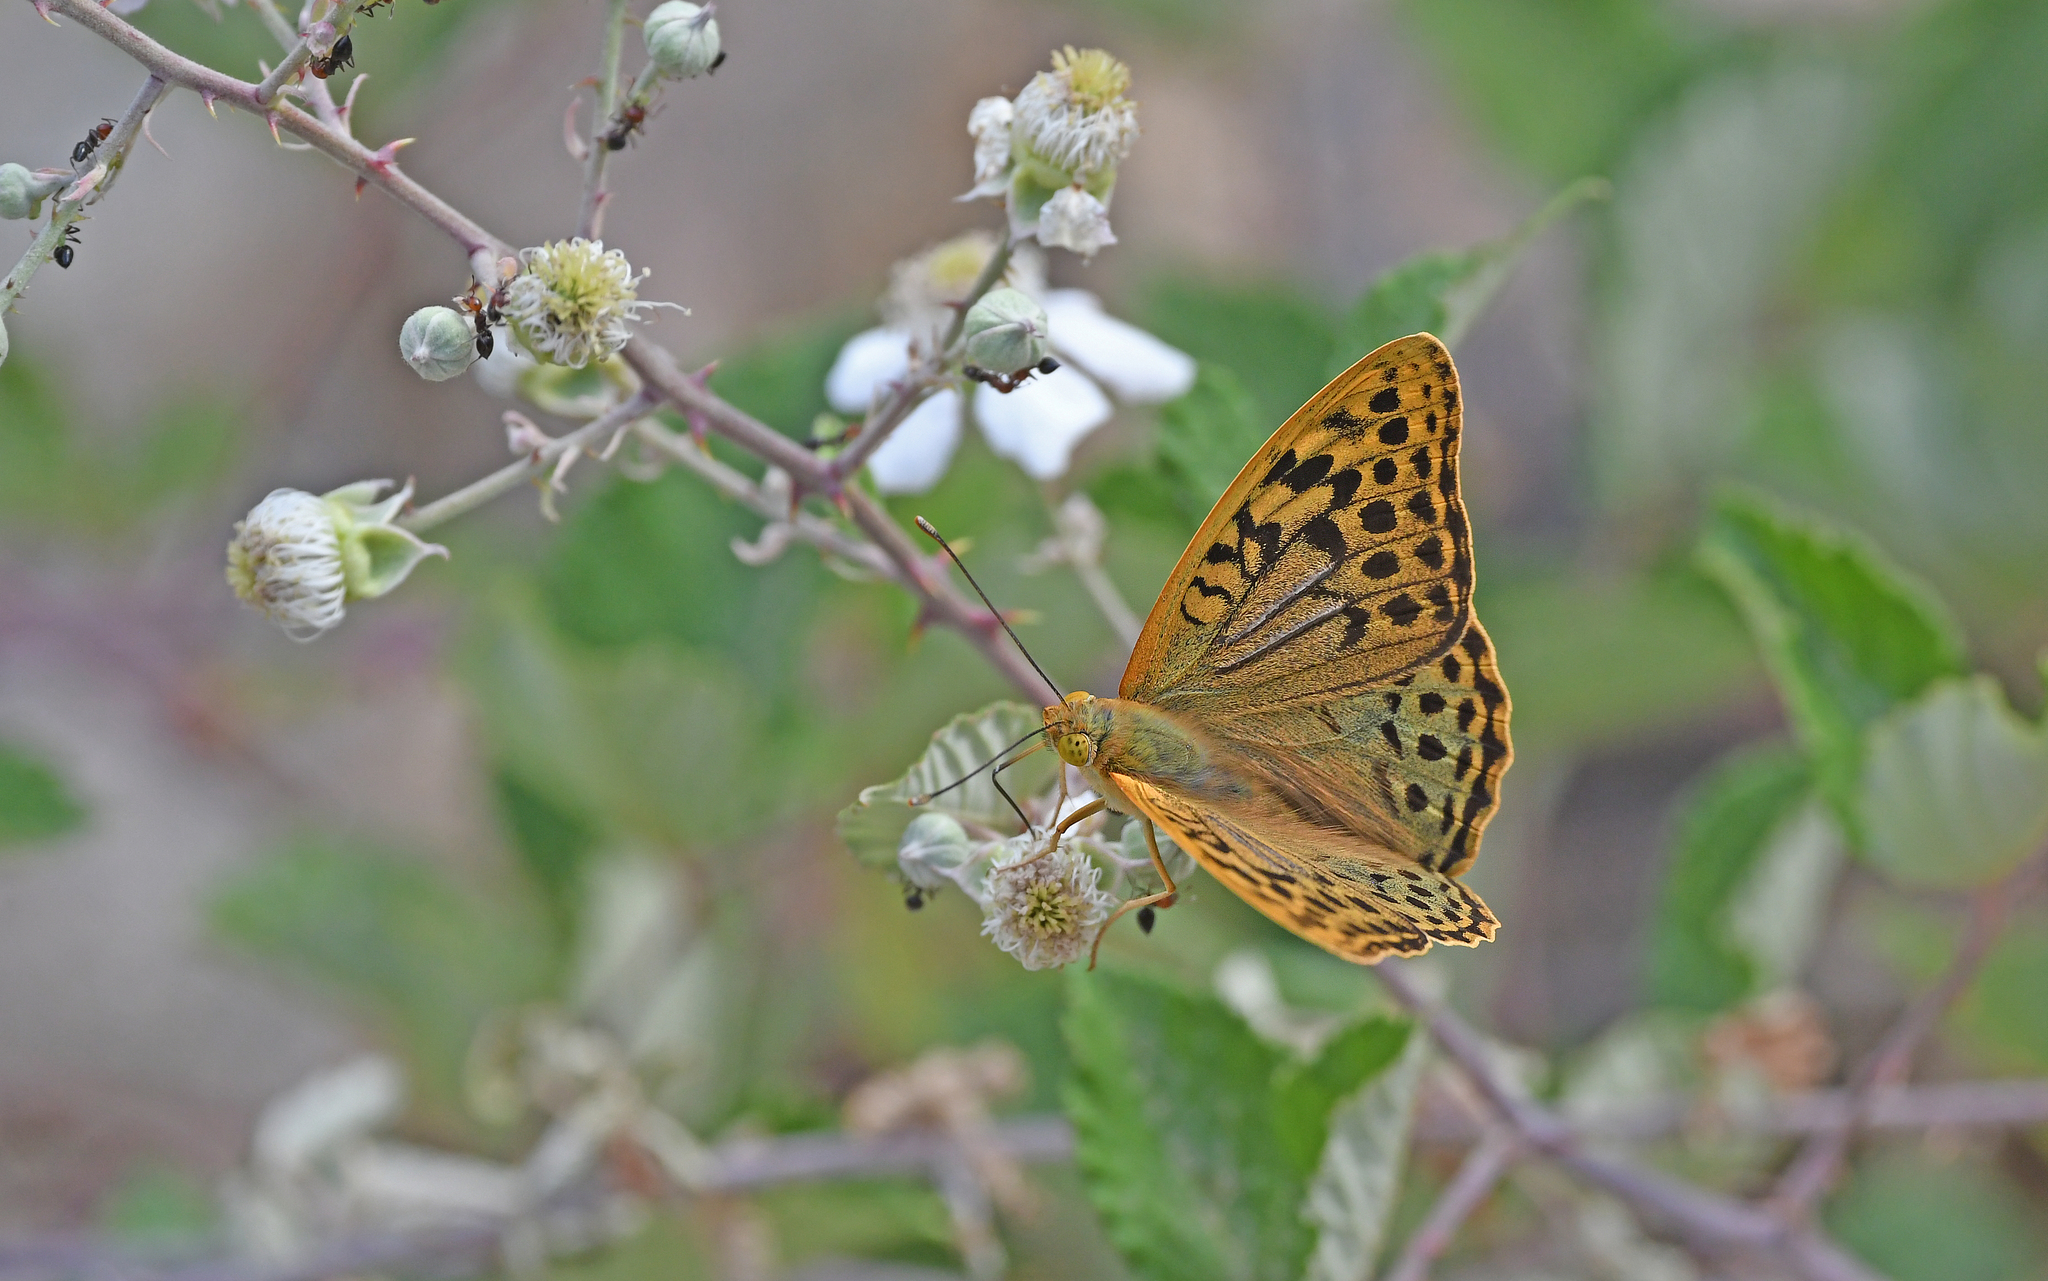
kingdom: Animalia
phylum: Arthropoda
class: Insecta
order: Lepidoptera
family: Nymphalidae
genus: Damora
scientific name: Damora pandora
